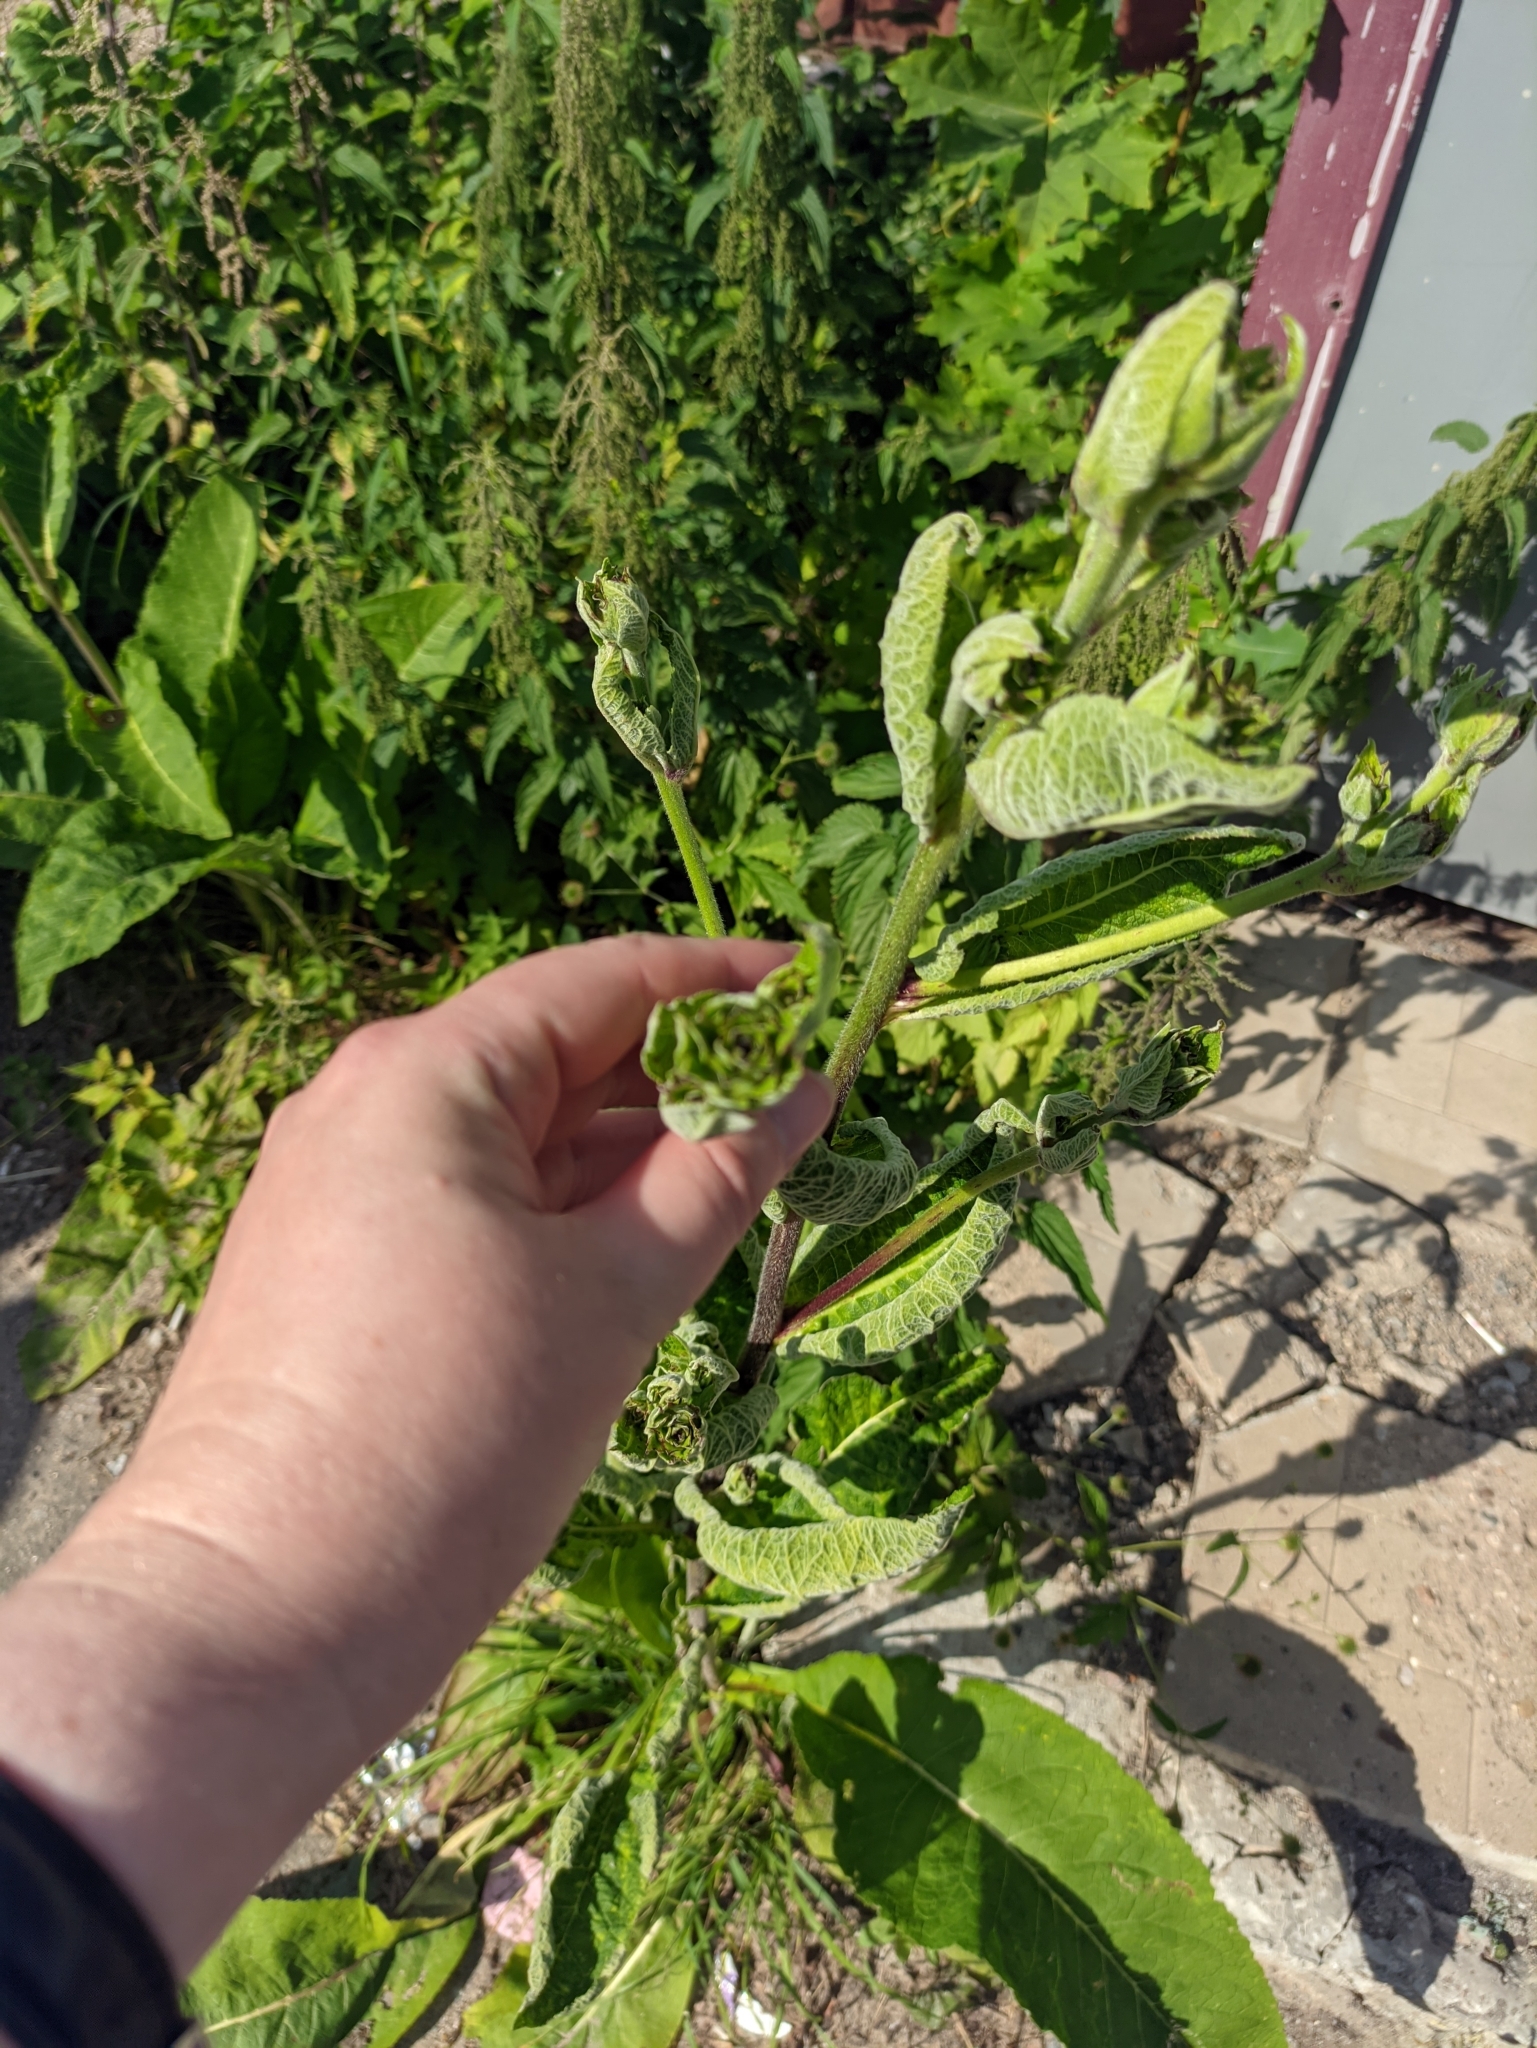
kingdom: Plantae
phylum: Tracheophyta
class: Magnoliopsida
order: Asterales
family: Asteraceae
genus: Inula
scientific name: Inula helenium
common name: Elecampane
